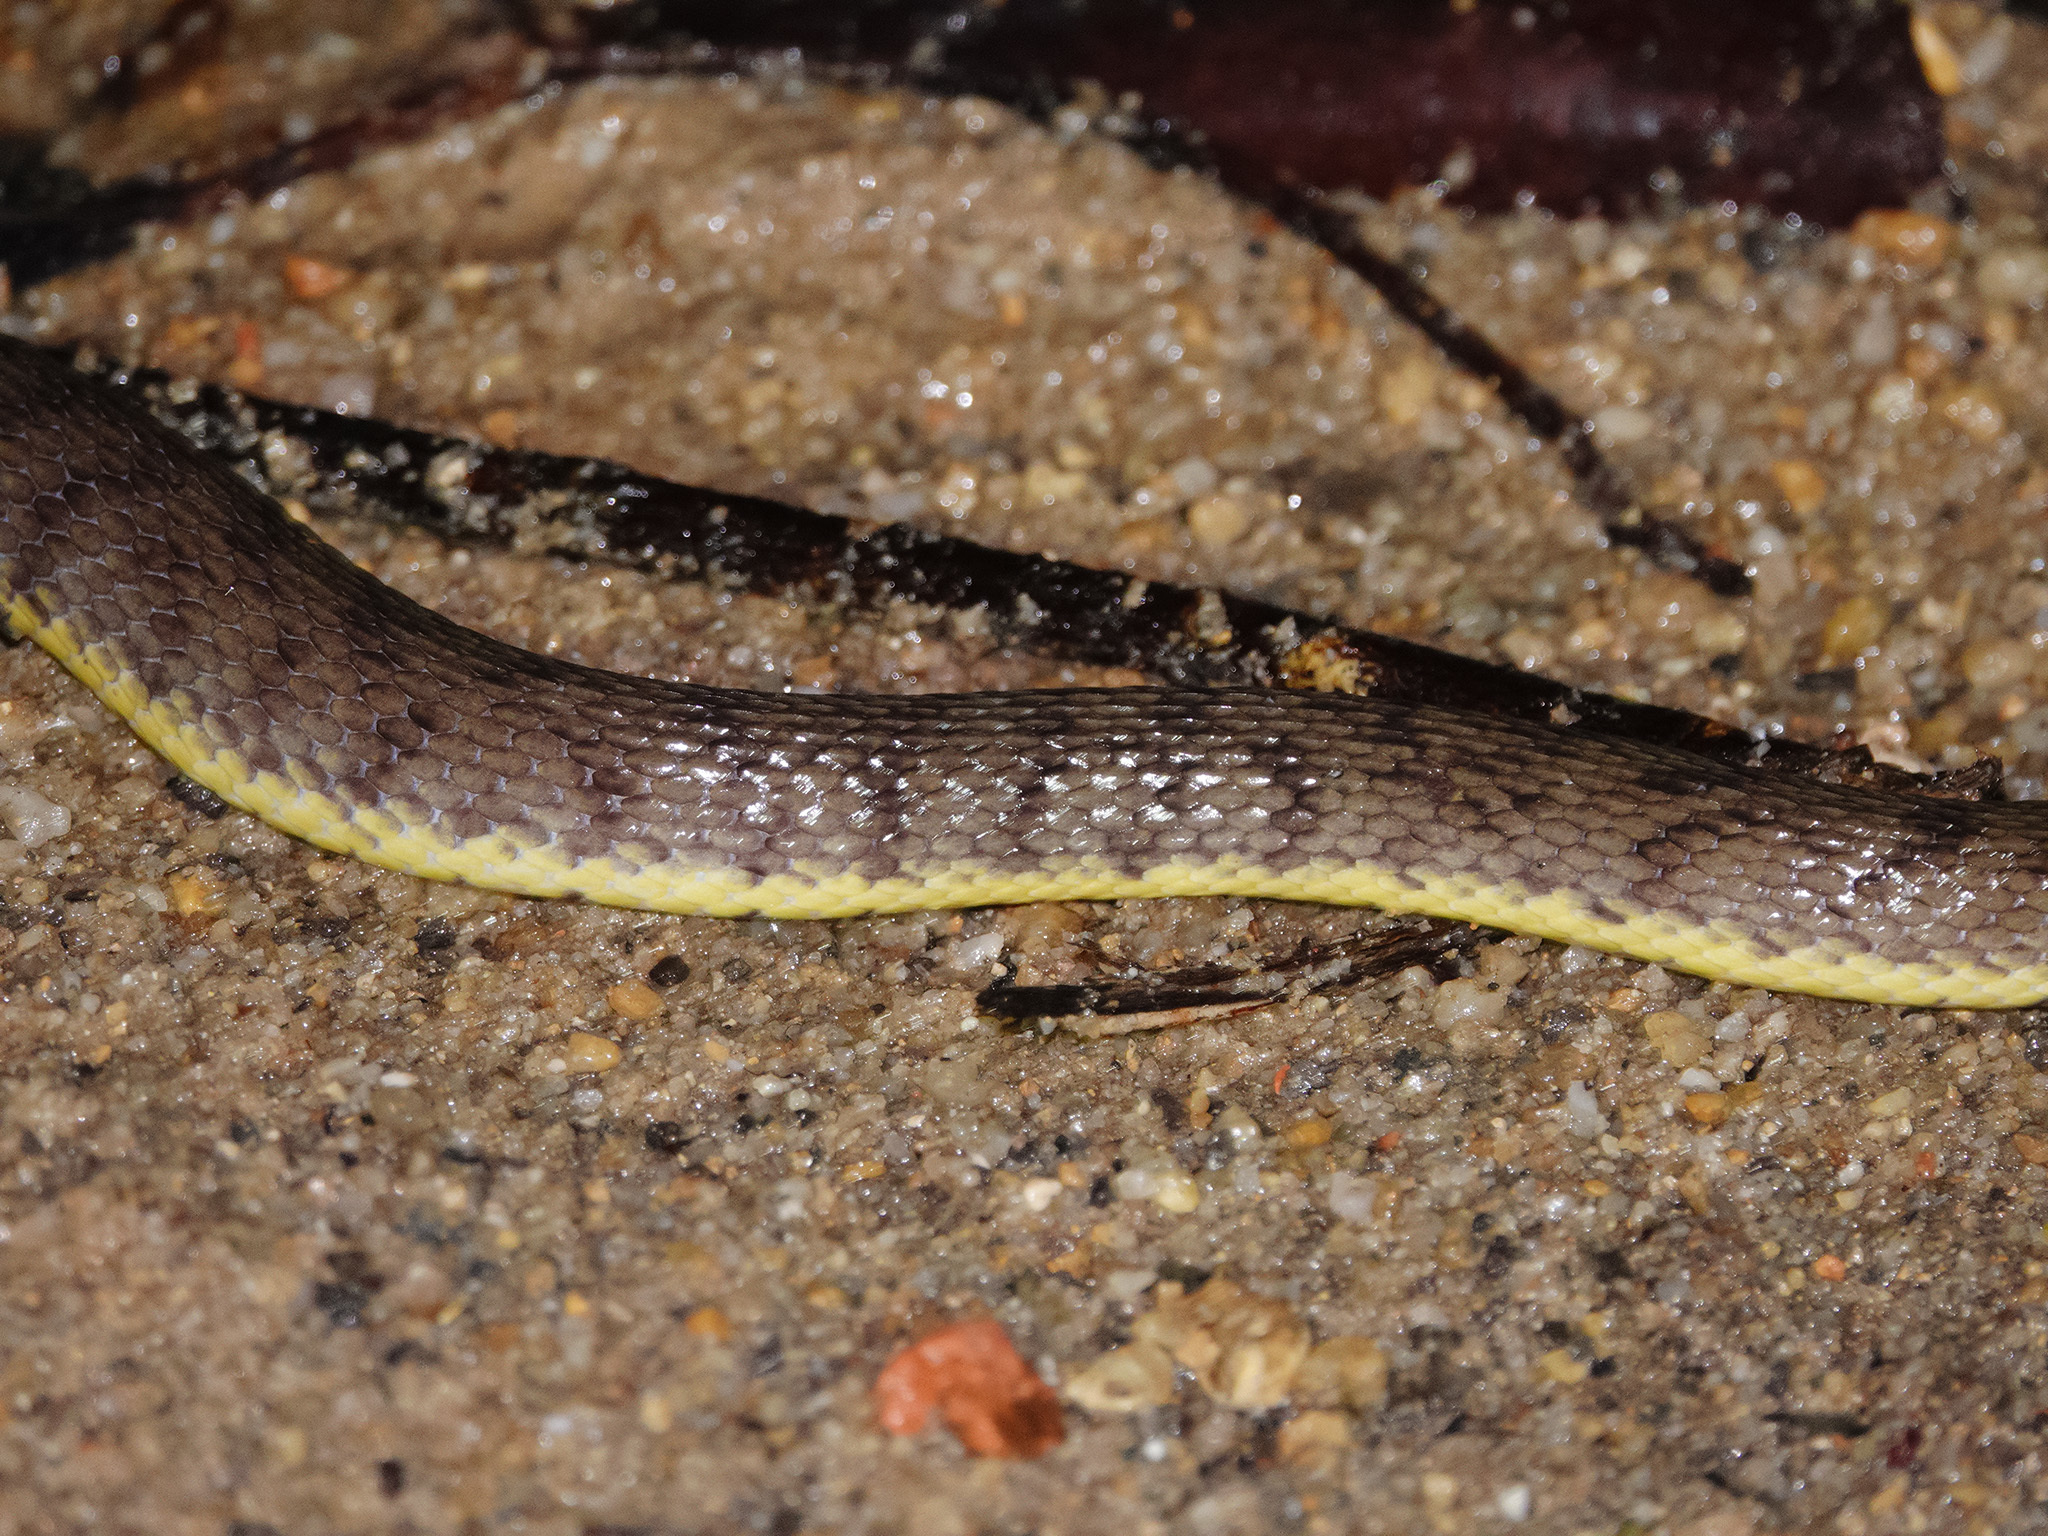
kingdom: Animalia
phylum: Chordata
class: Squamata
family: Homalopsidae
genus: Cerberus
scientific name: Cerberus schneiderii
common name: Southeast asian bockadam
